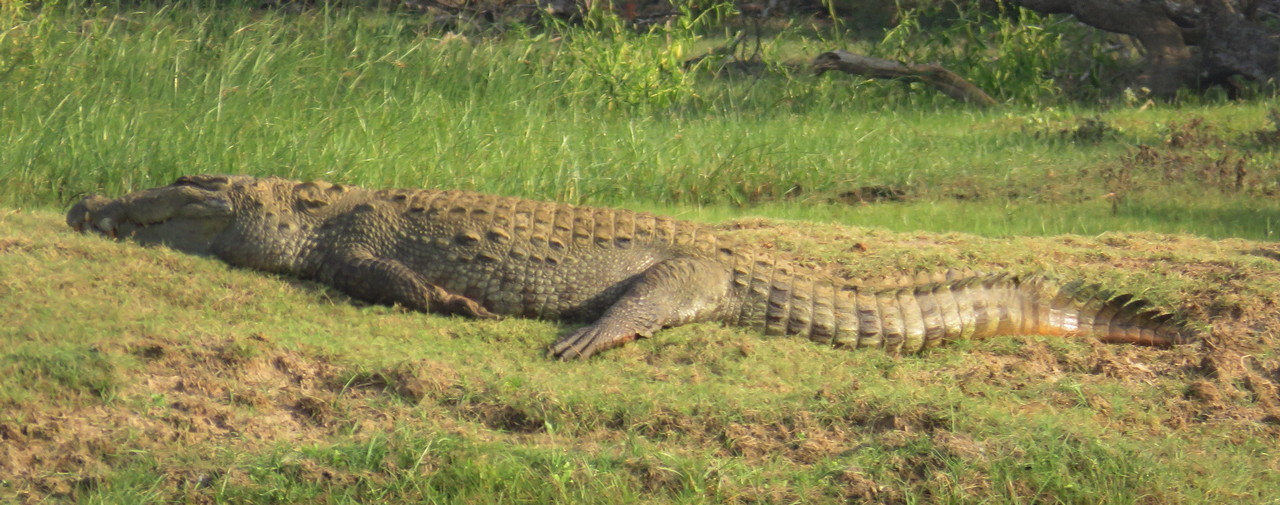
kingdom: Animalia
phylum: Chordata
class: Crocodylia
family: Crocodylidae
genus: Crocodylus
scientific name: Crocodylus palustris
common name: Mugger crocodile
